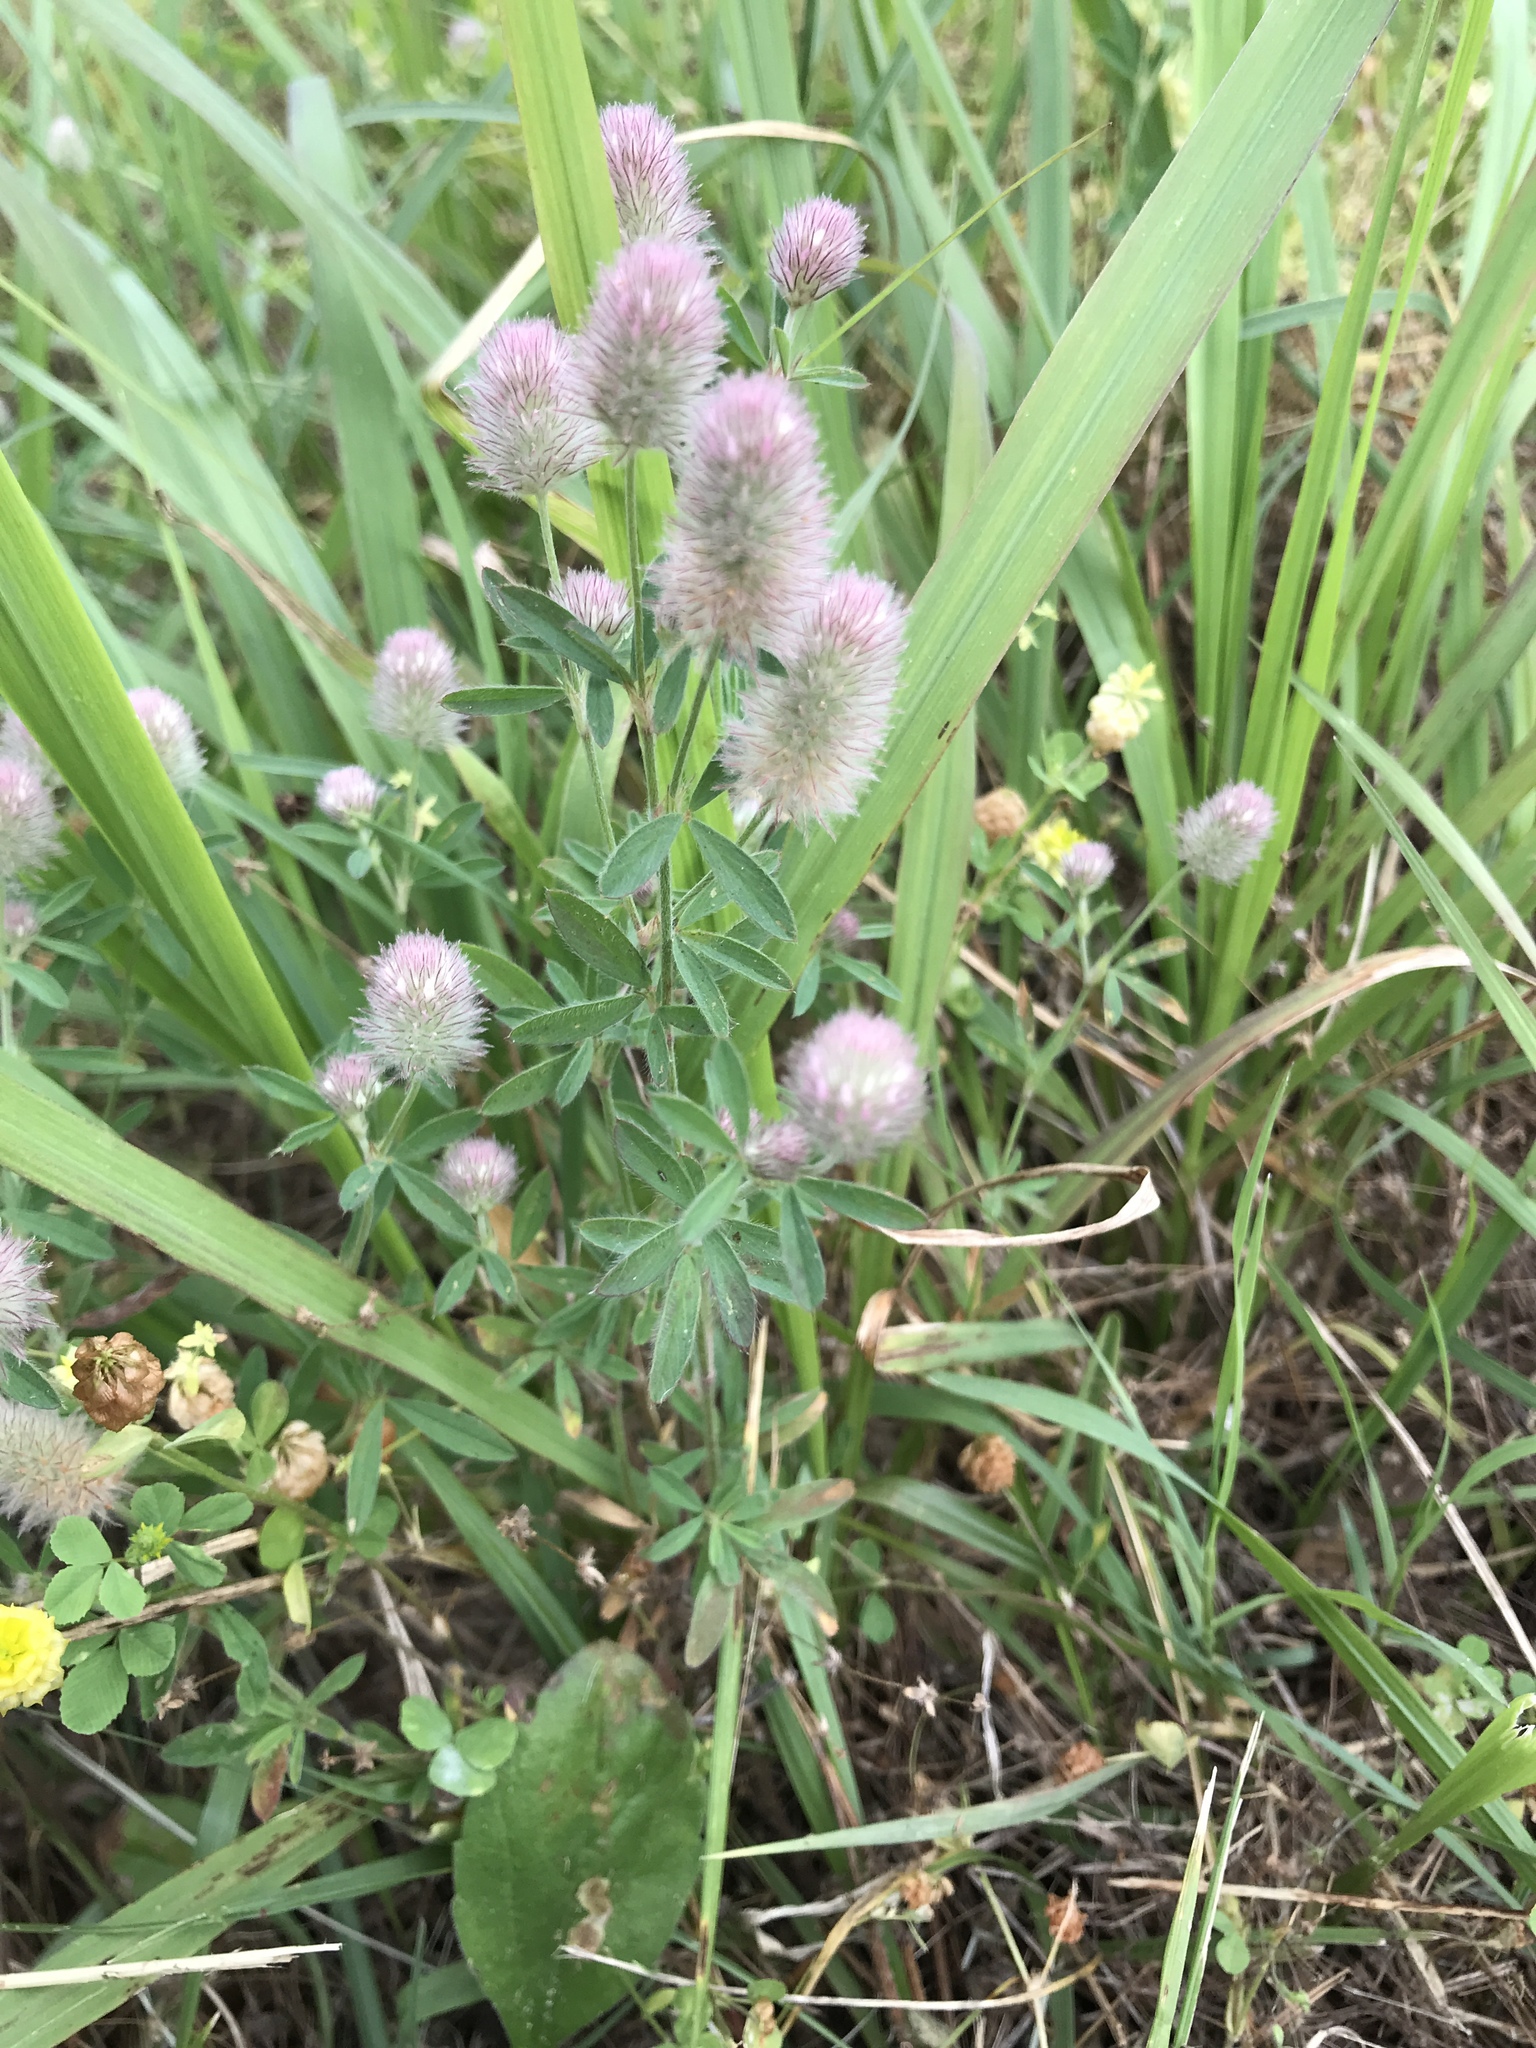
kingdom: Plantae
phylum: Tracheophyta
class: Magnoliopsida
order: Fabales
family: Fabaceae
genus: Trifolium
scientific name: Trifolium arvense
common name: Hare's-foot clover
